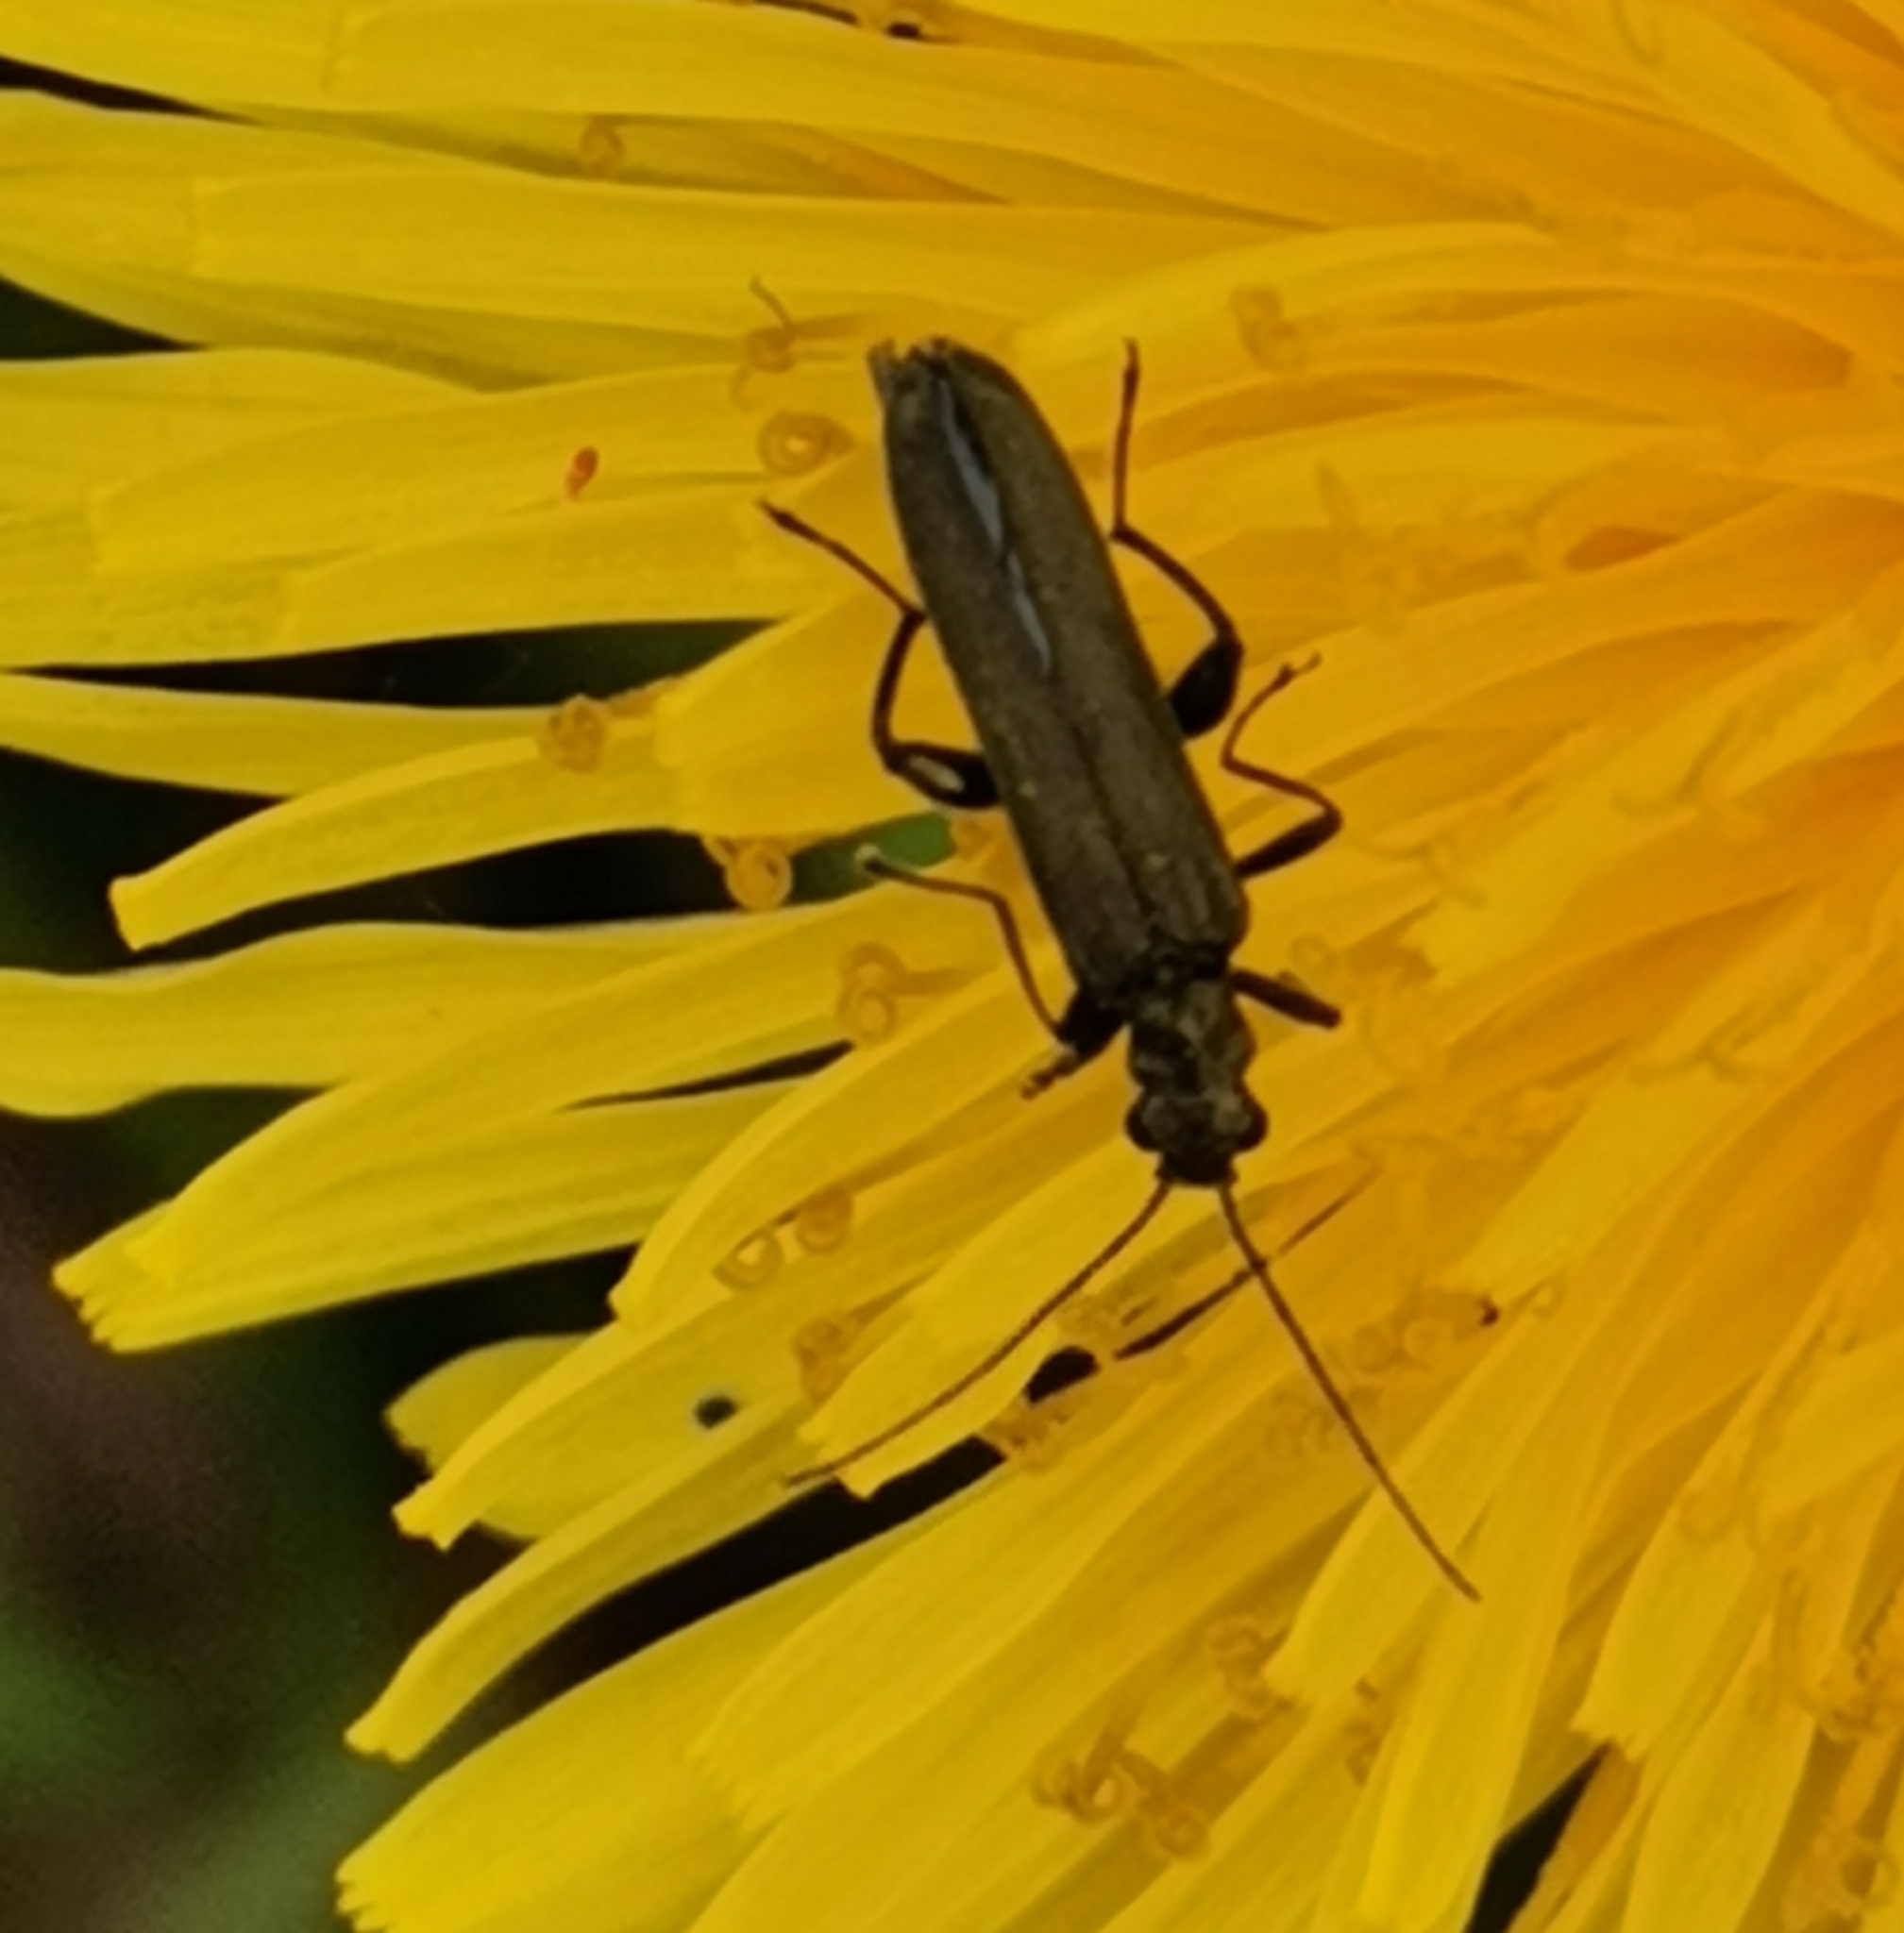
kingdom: Animalia
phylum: Arthropoda
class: Insecta
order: Coleoptera
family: Oedemeridae
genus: Oedemera
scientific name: Oedemera virescens
